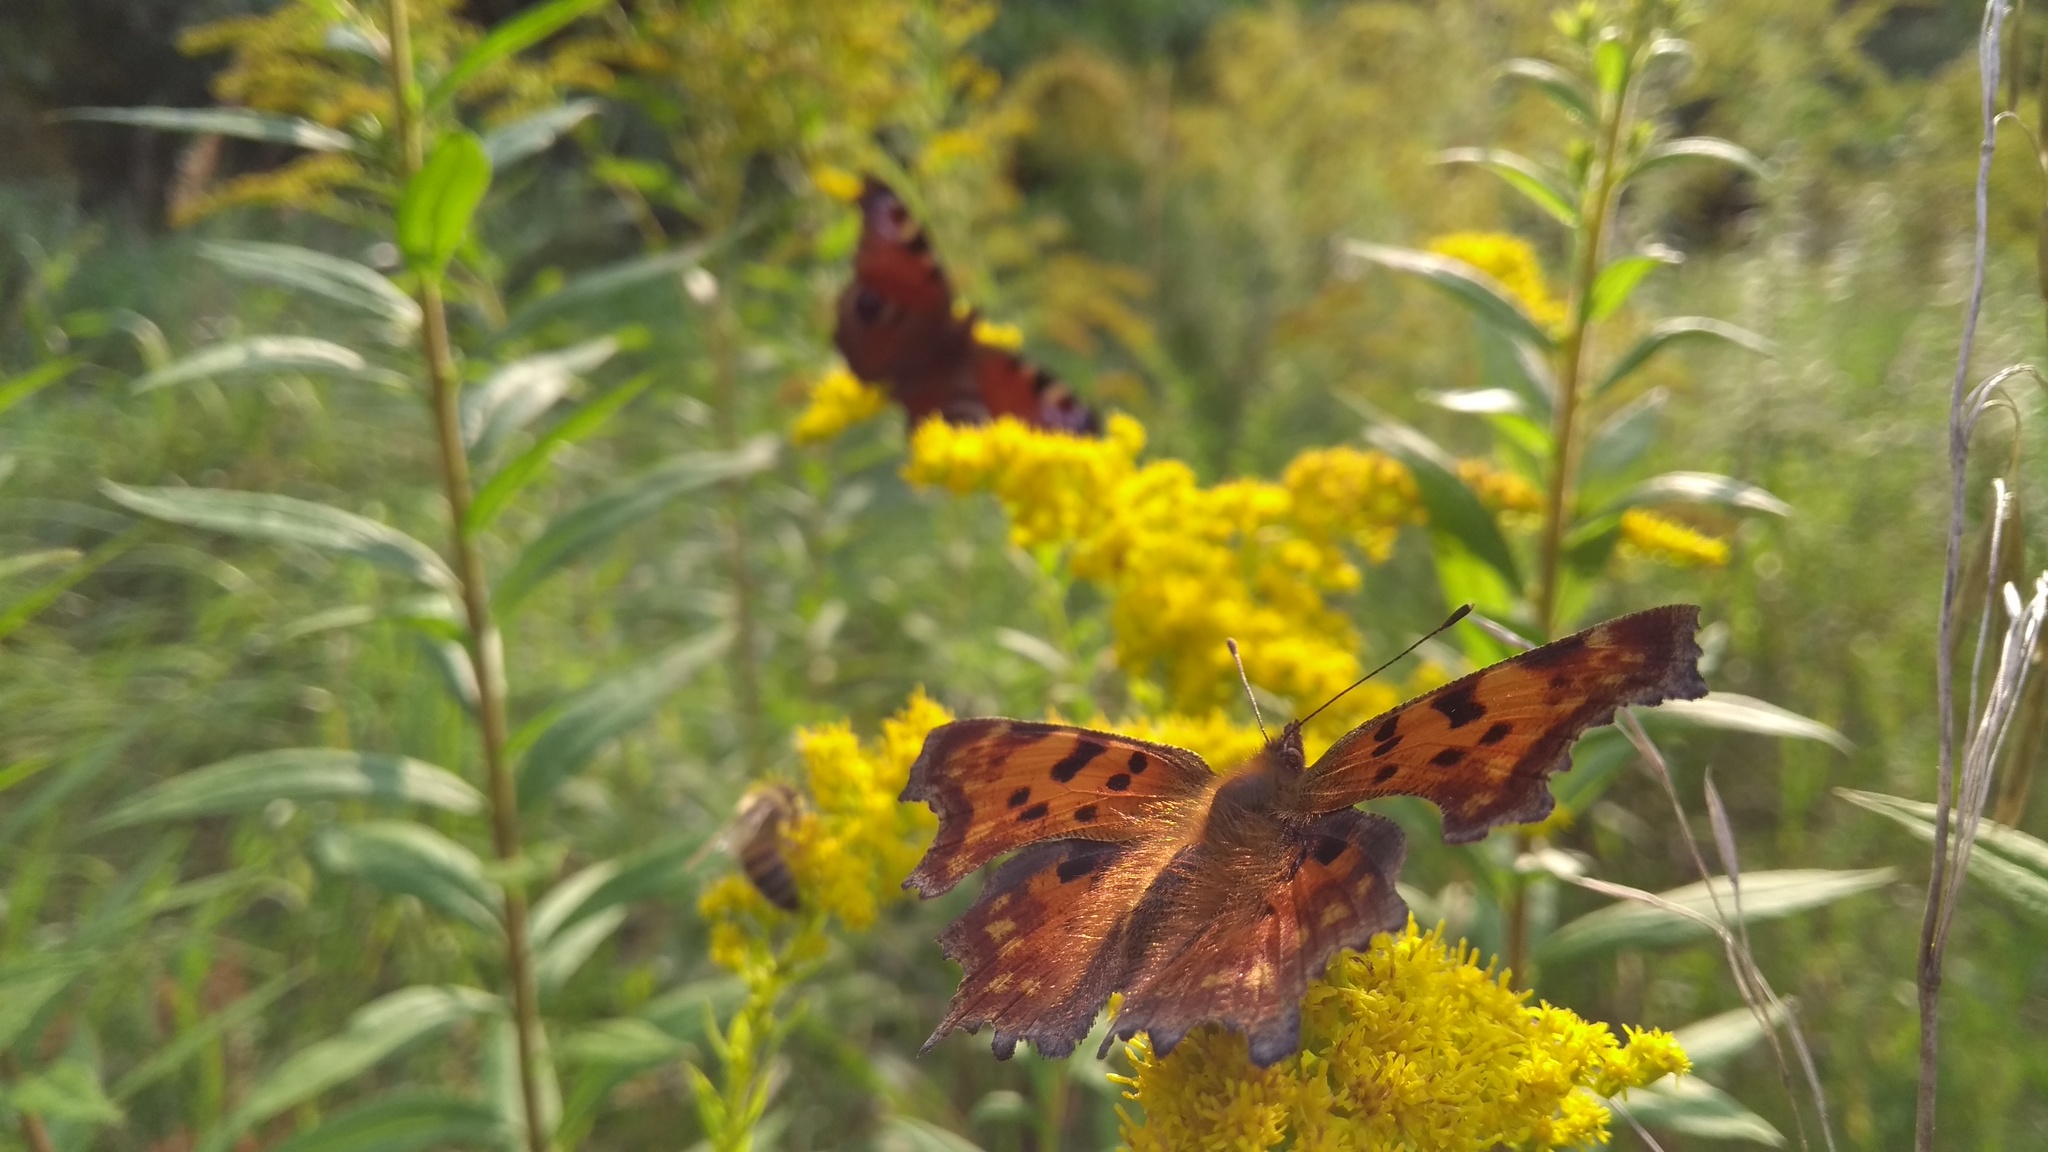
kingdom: Animalia
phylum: Arthropoda
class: Insecta
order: Lepidoptera
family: Nymphalidae
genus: Polygonia
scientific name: Polygonia c-album
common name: Comma
